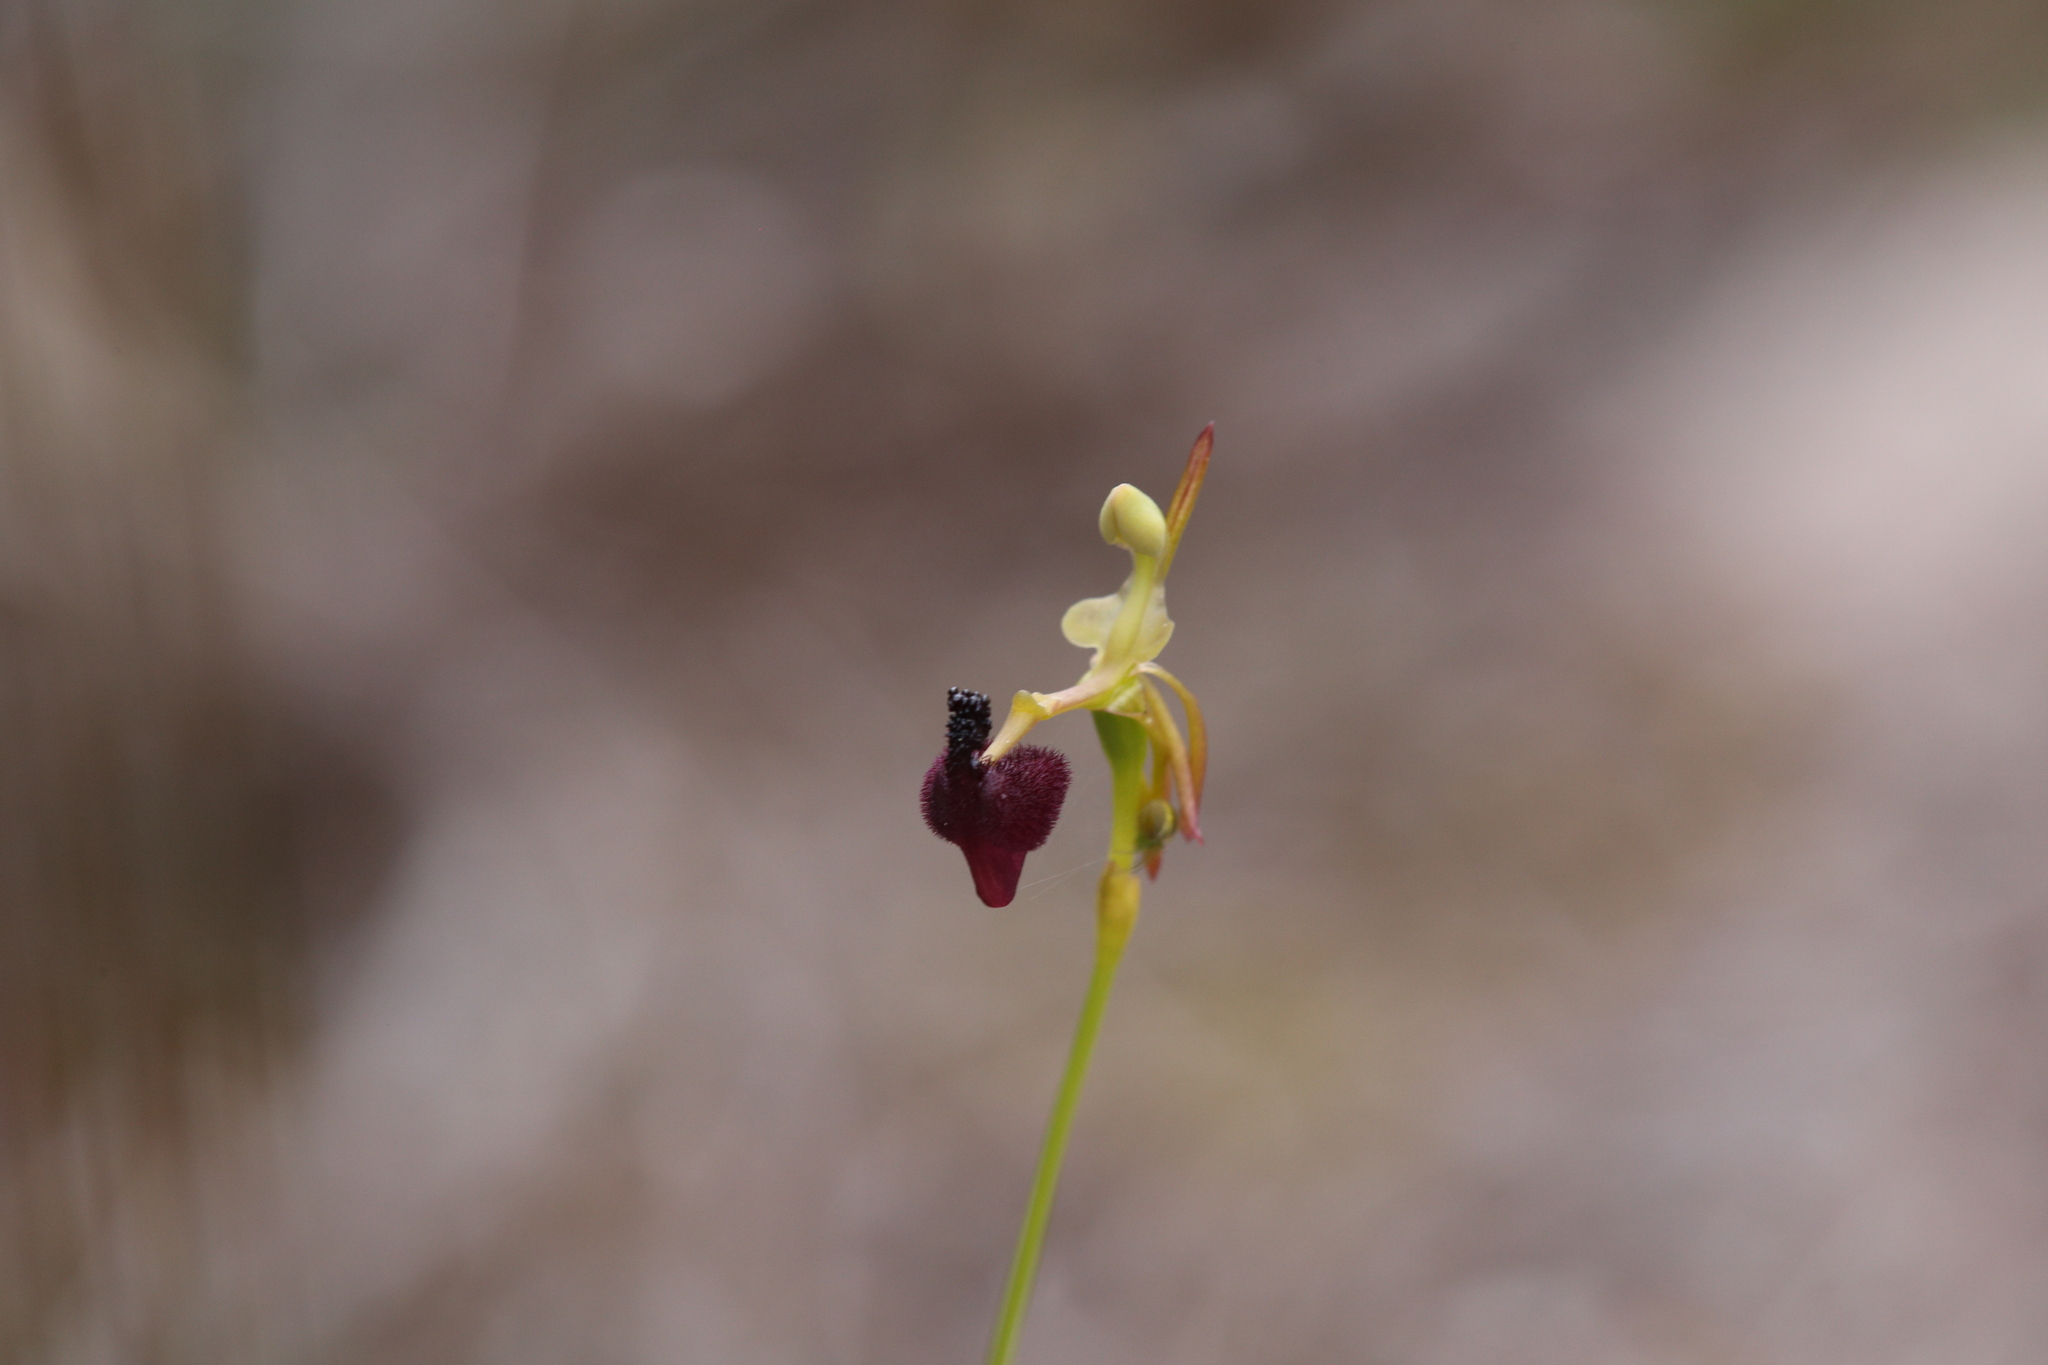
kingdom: Plantae
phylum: Tracheophyta
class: Liliopsida
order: Asparagales
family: Orchidaceae
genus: Drakaea
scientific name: Drakaea glyptodon
